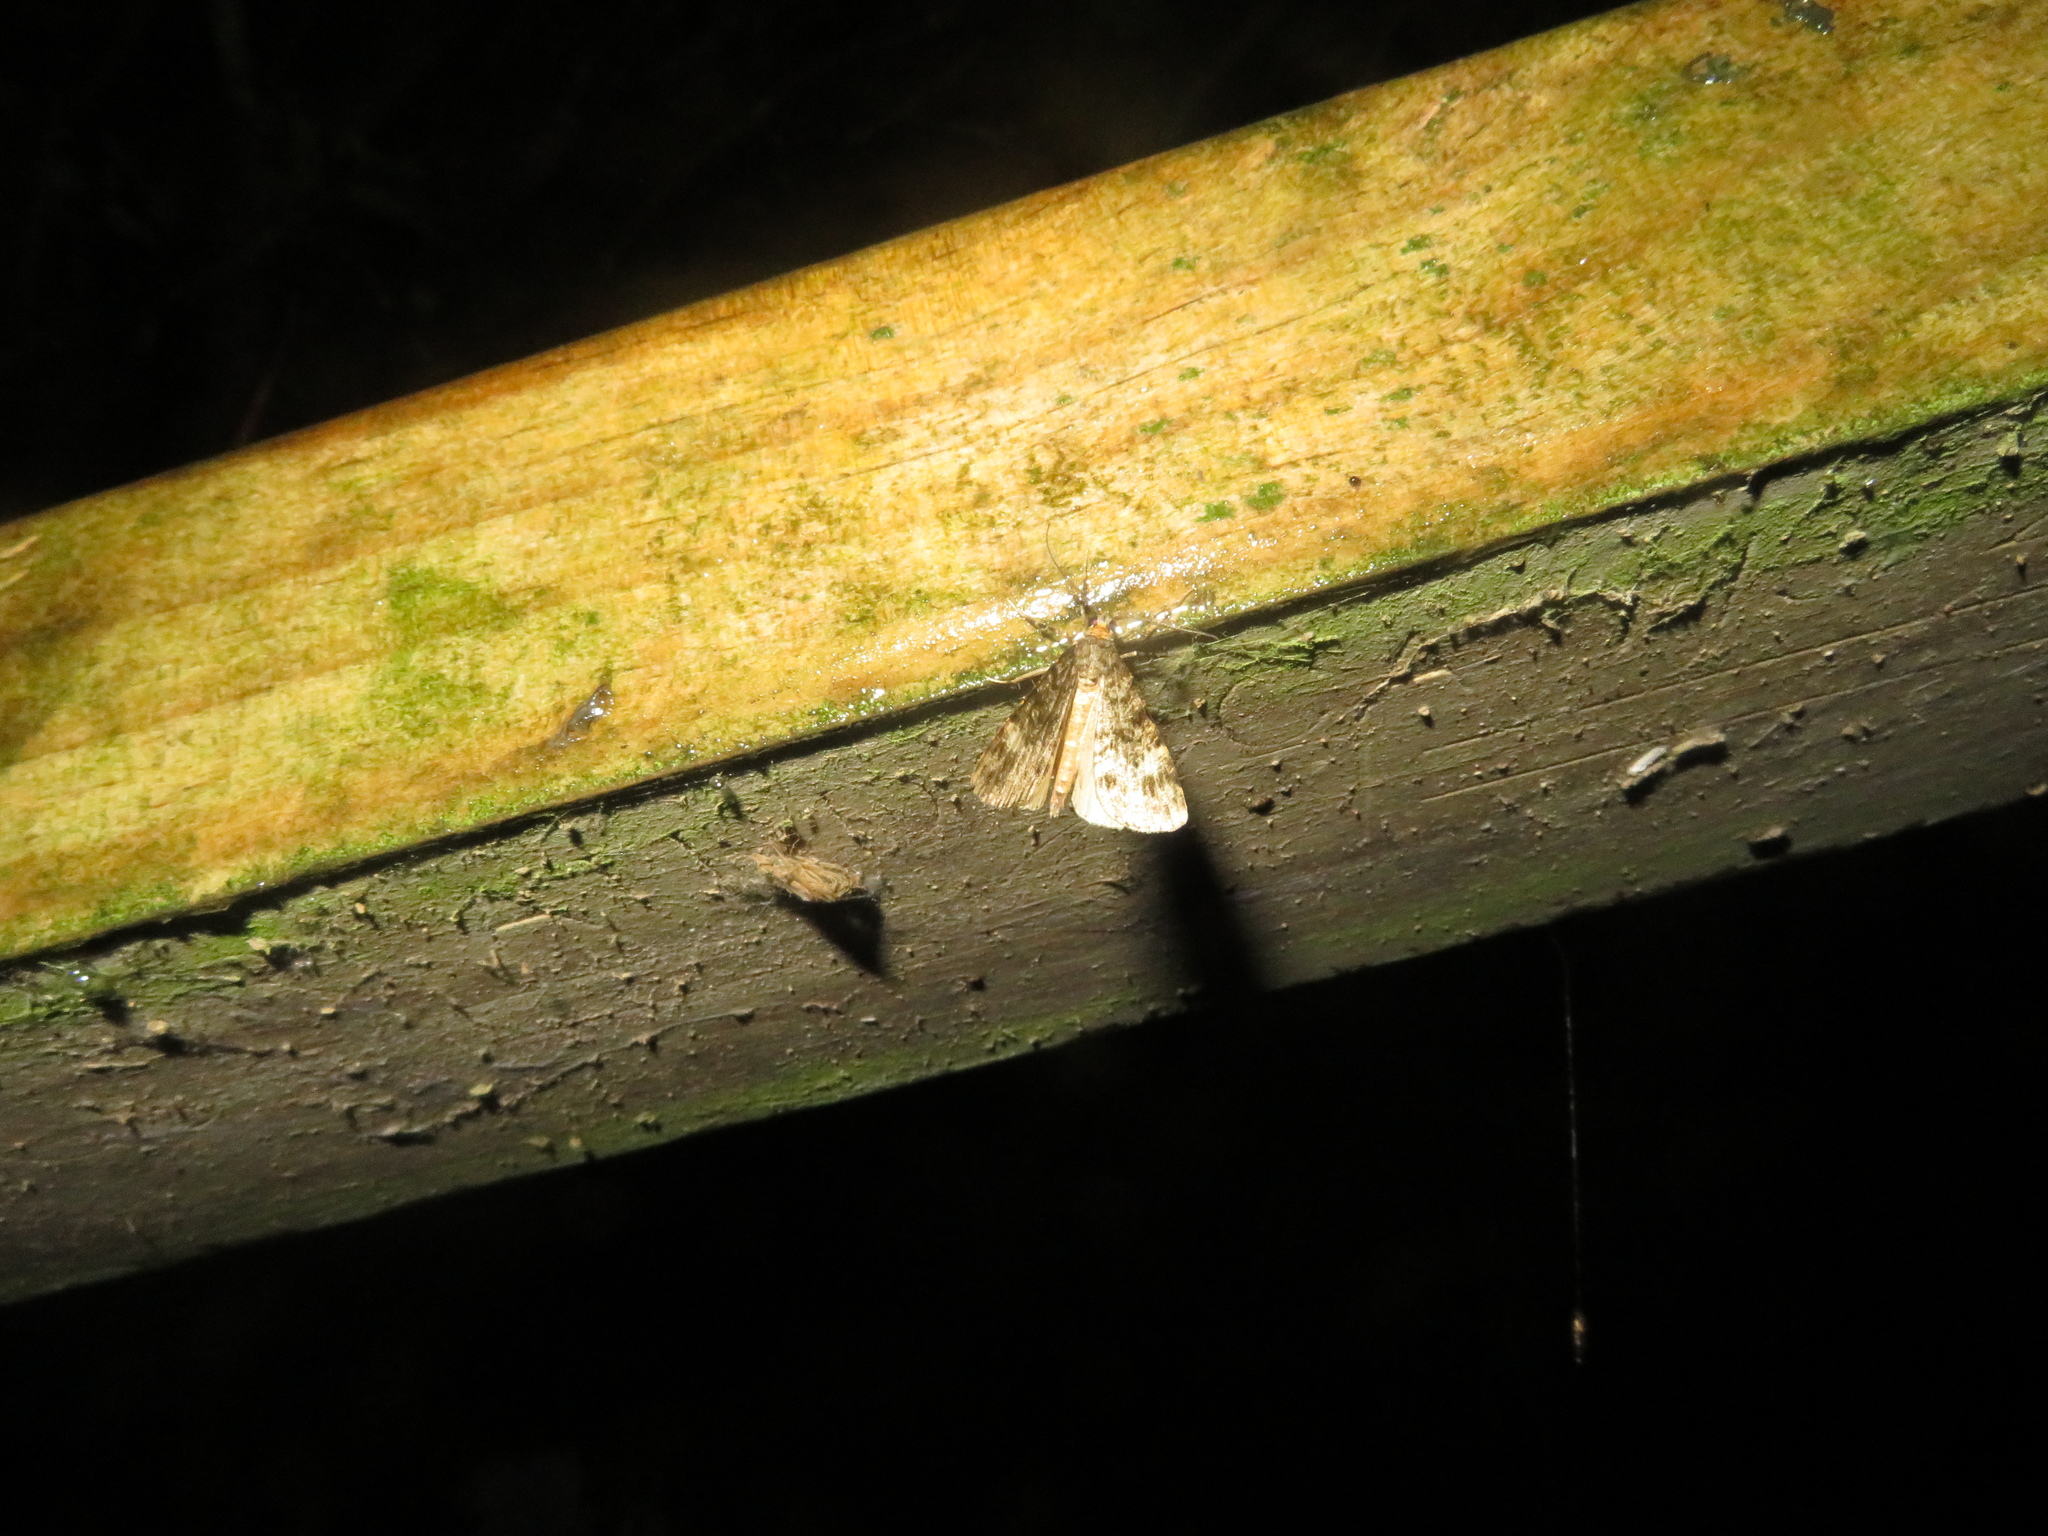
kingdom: Animalia
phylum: Arthropoda
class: Insecta
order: Lepidoptera
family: Geometridae
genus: Pseudocoremia
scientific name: Pseudocoremia indistincta
